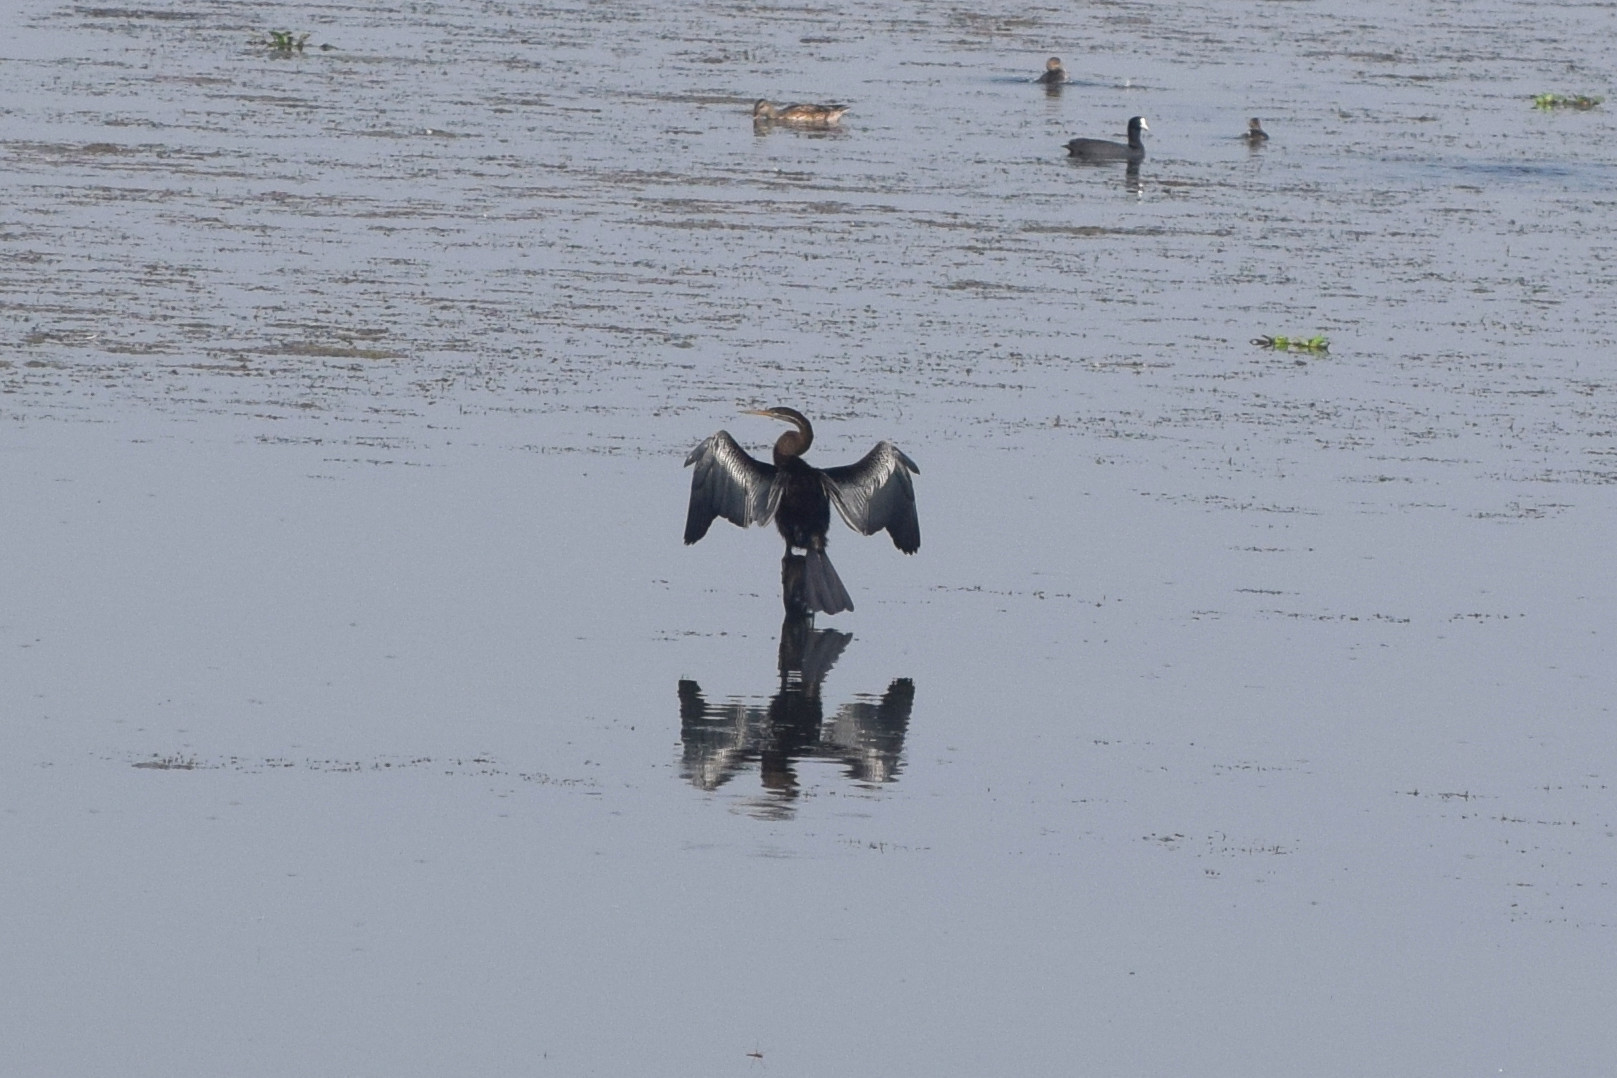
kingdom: Animalia
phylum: Chordata
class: Aves
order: Suliformes
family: Anhingidae
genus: Anhinga
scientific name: Anhinga melanogaster
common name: Oriental darter
